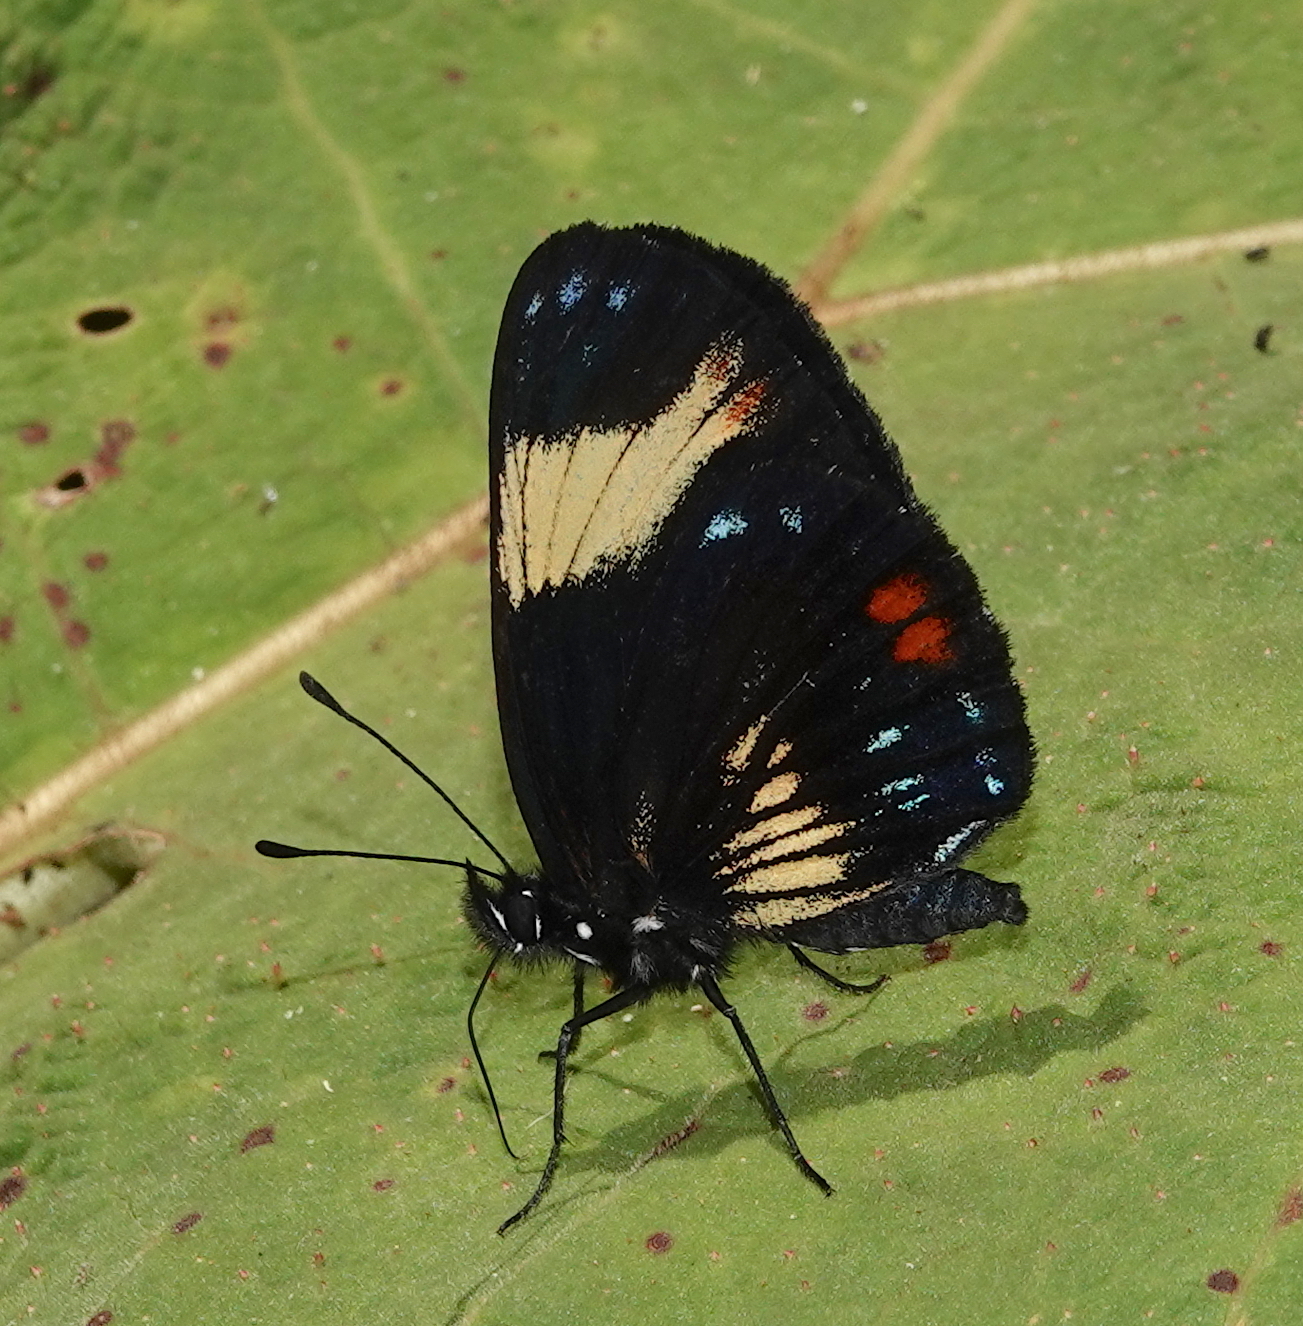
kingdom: Animalia
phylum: Arthropoda
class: Insecta
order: Lepidoptera
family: Nymphalidae
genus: Eresia
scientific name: Eresia levina
